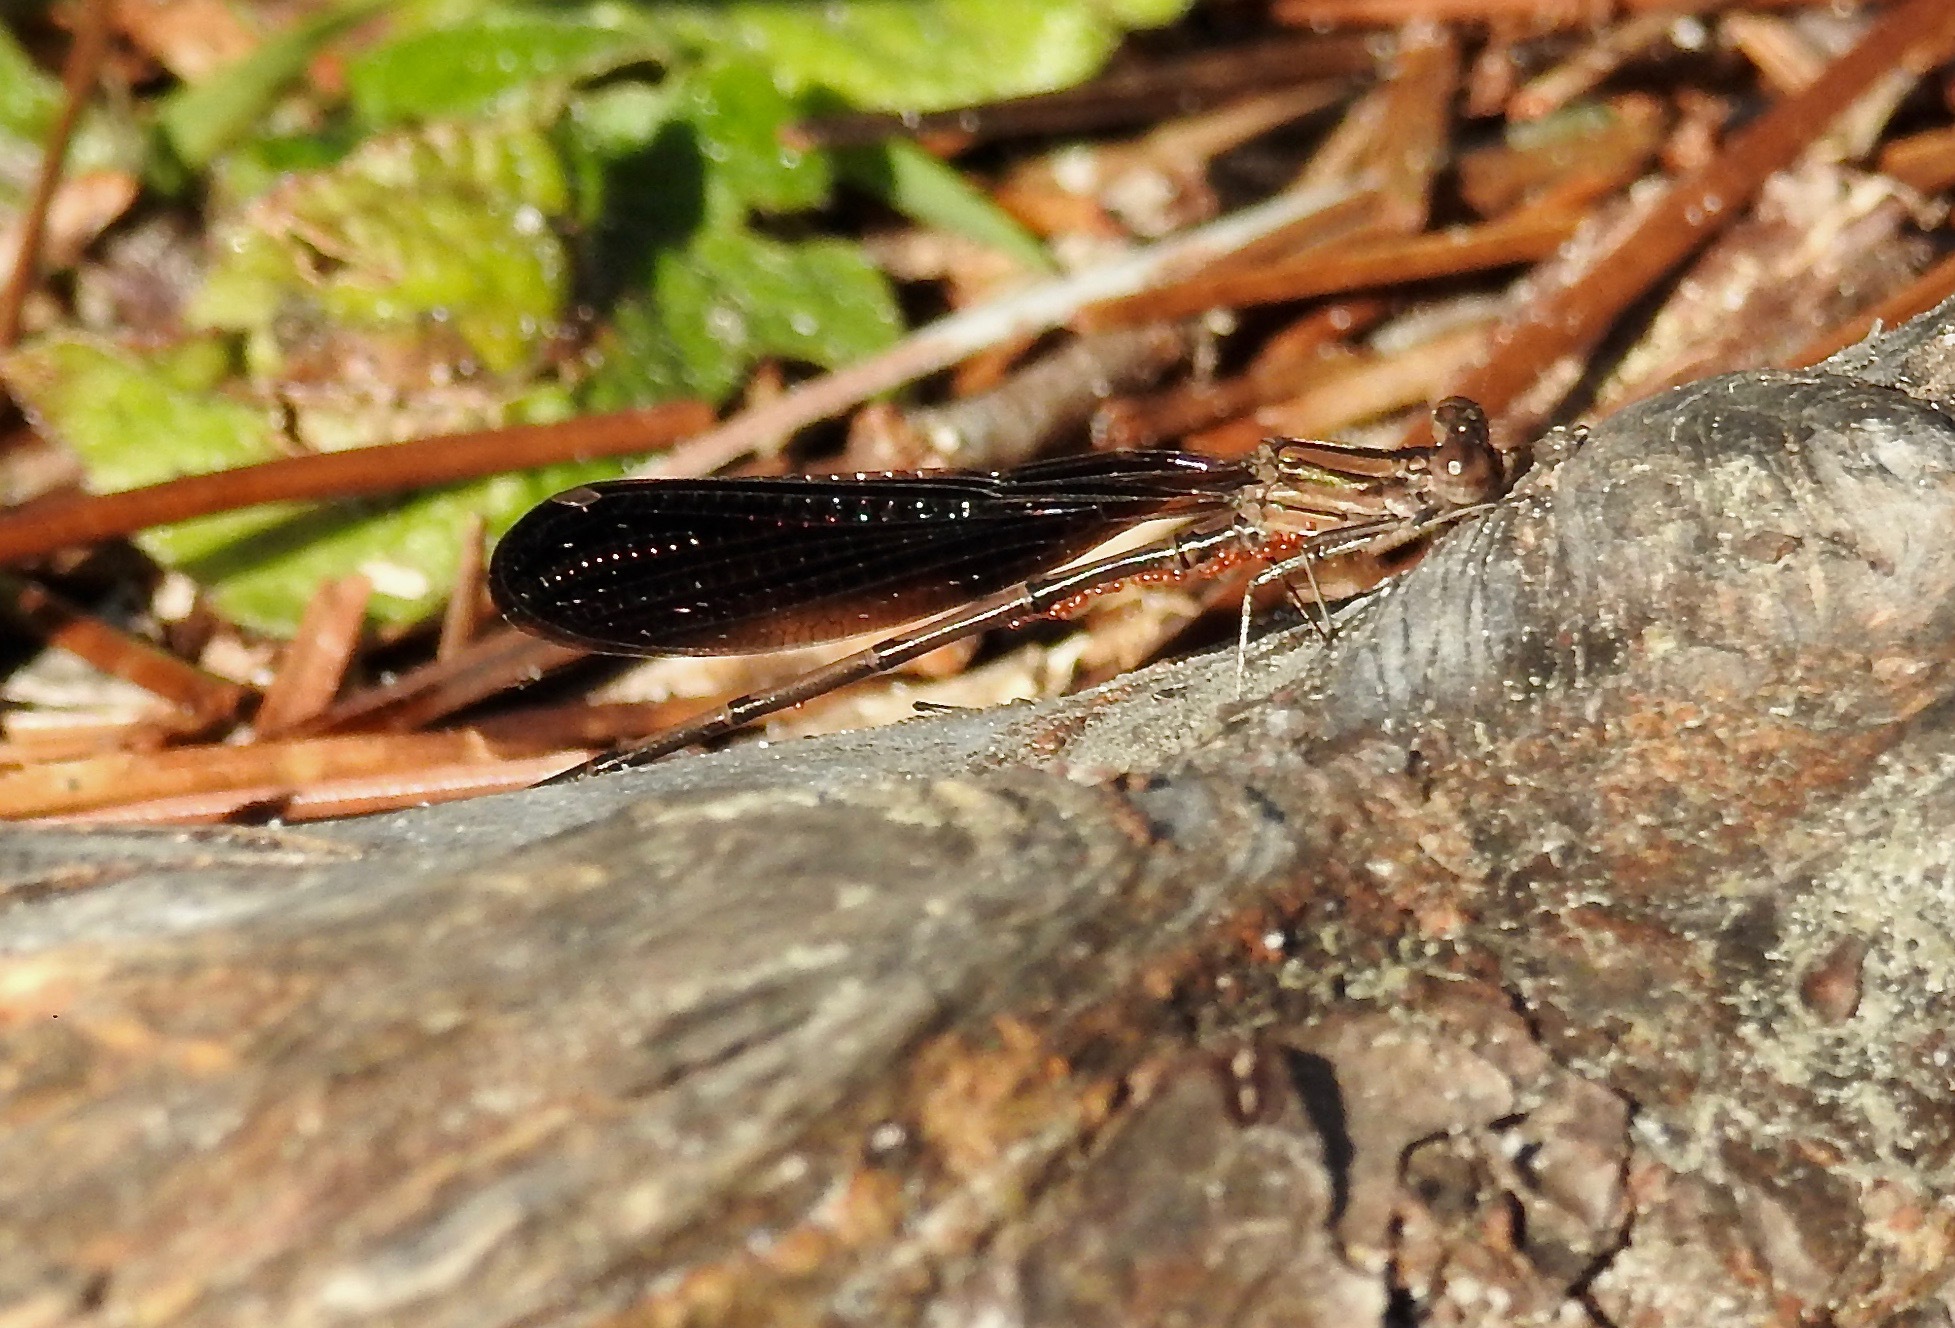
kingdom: Animalia
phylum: Arthropoda
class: Insecta
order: Odonata
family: Coenagrionidae
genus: Argia
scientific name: Argia fumipennis
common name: Variable dancer
